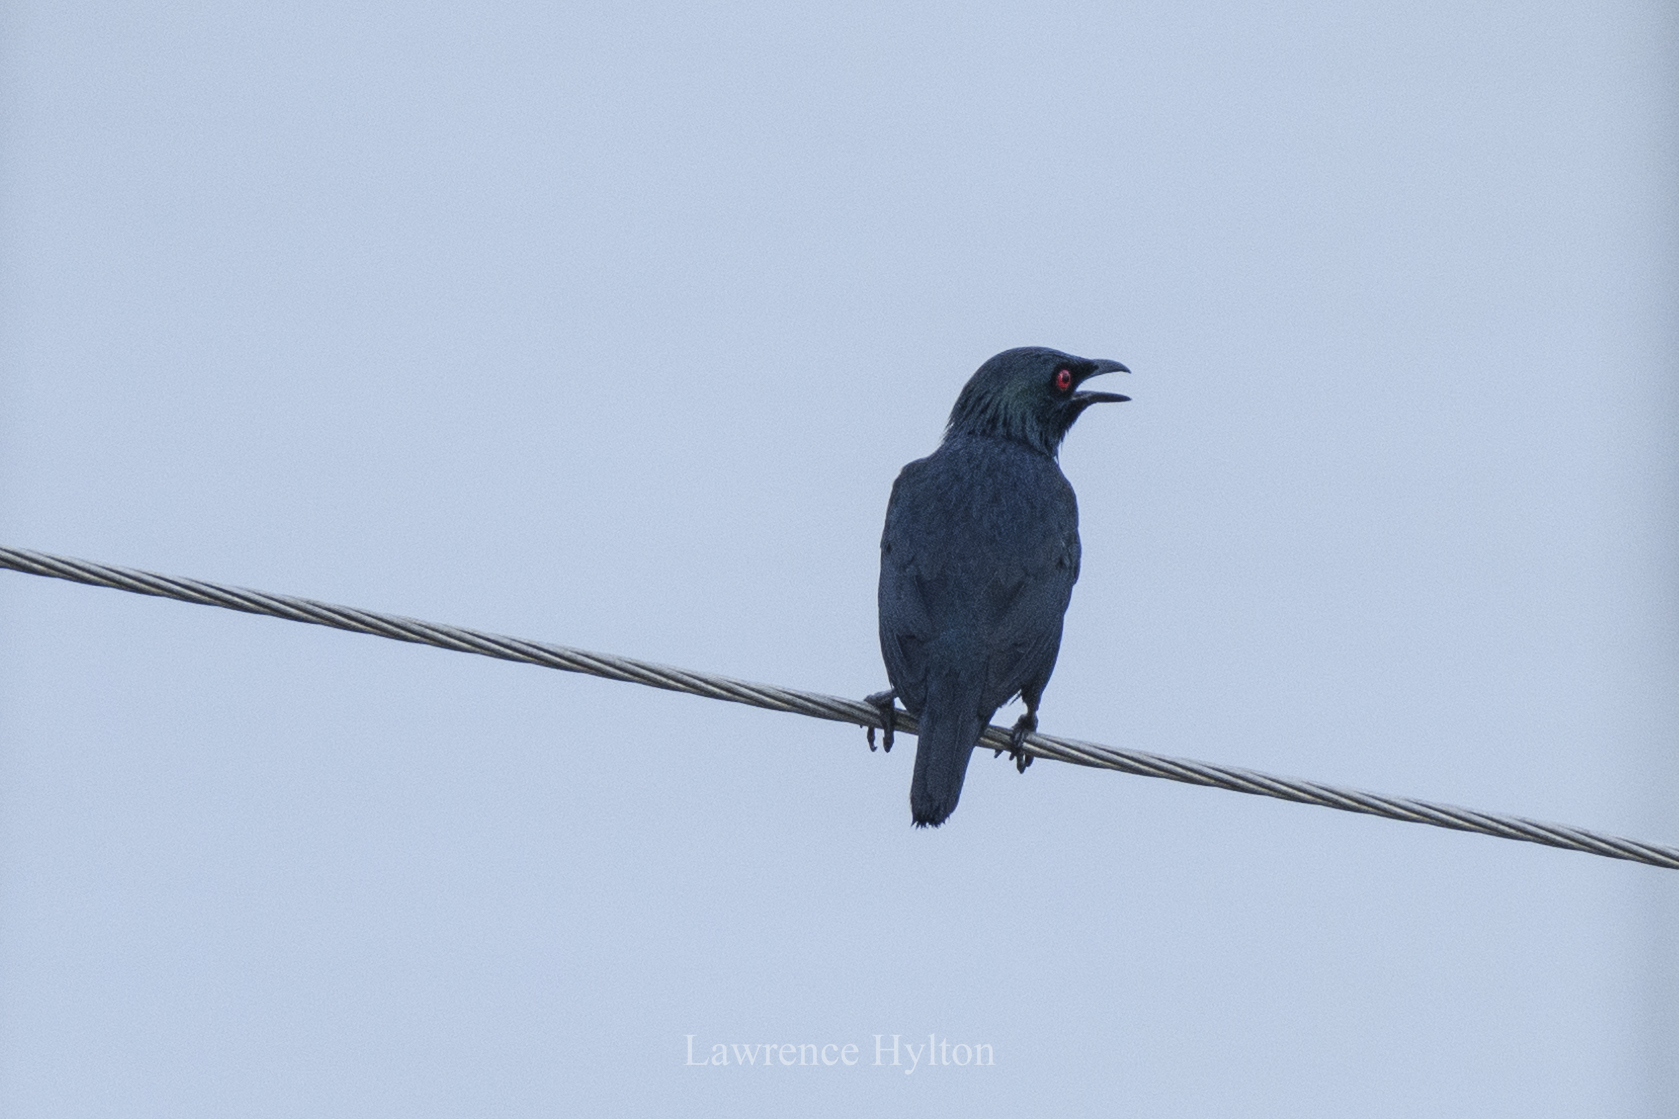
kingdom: Animalia
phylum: Chordata
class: Aves
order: Passeriformes
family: Sturnidae
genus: Aplonis
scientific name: Aplonis panayensis
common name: Asian glossy starling
